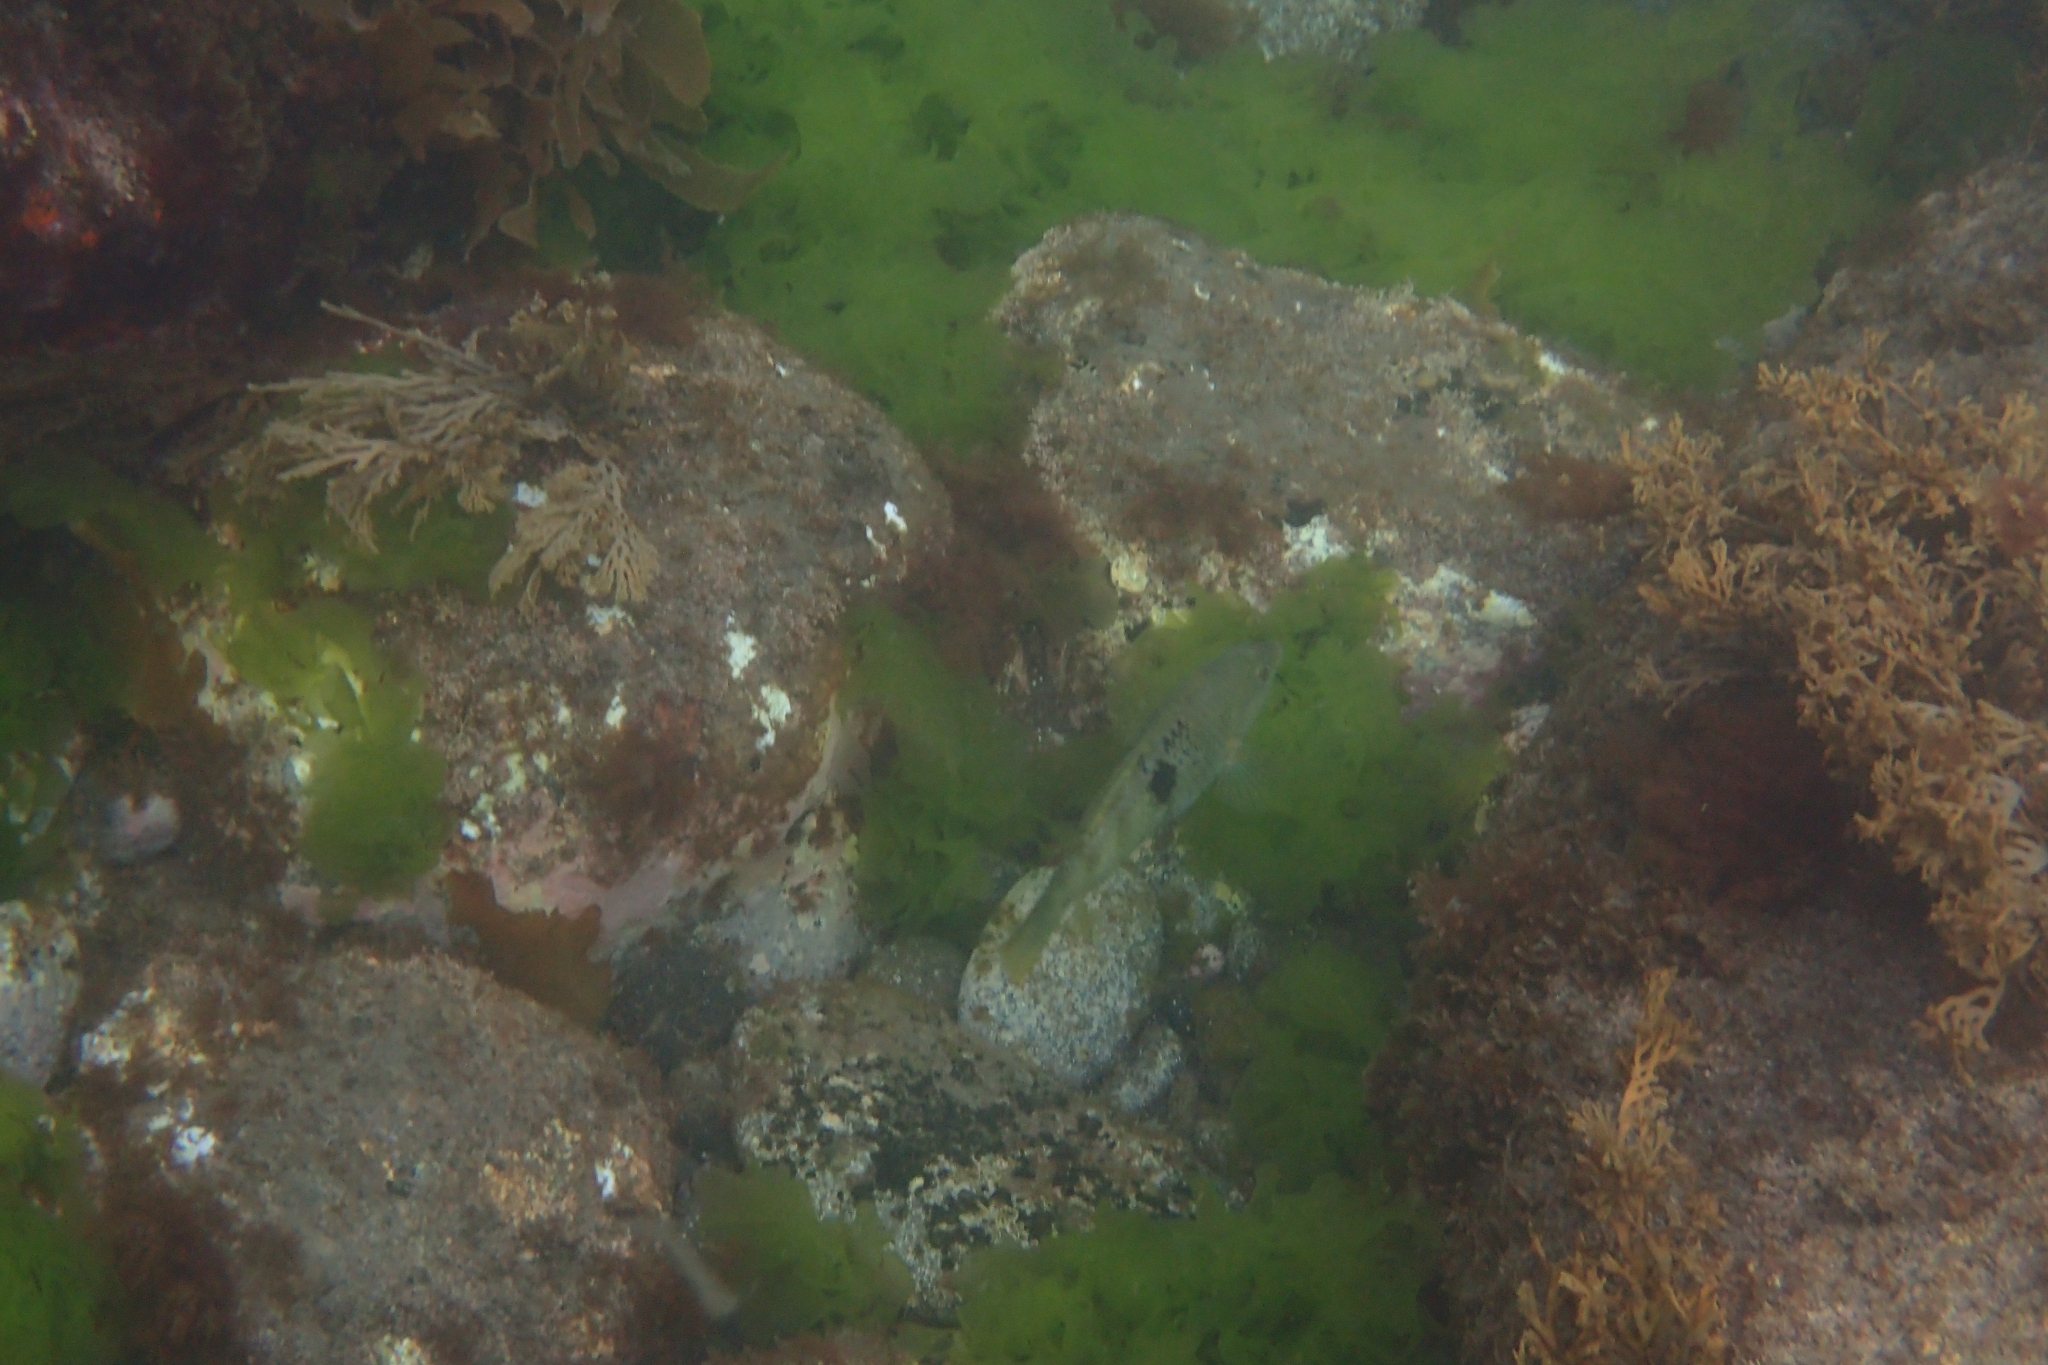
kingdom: Animalia
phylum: Chordata
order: Perciformes
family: Labridae
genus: Notolabrus
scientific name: Notolabrus celidotus
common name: Spotty
